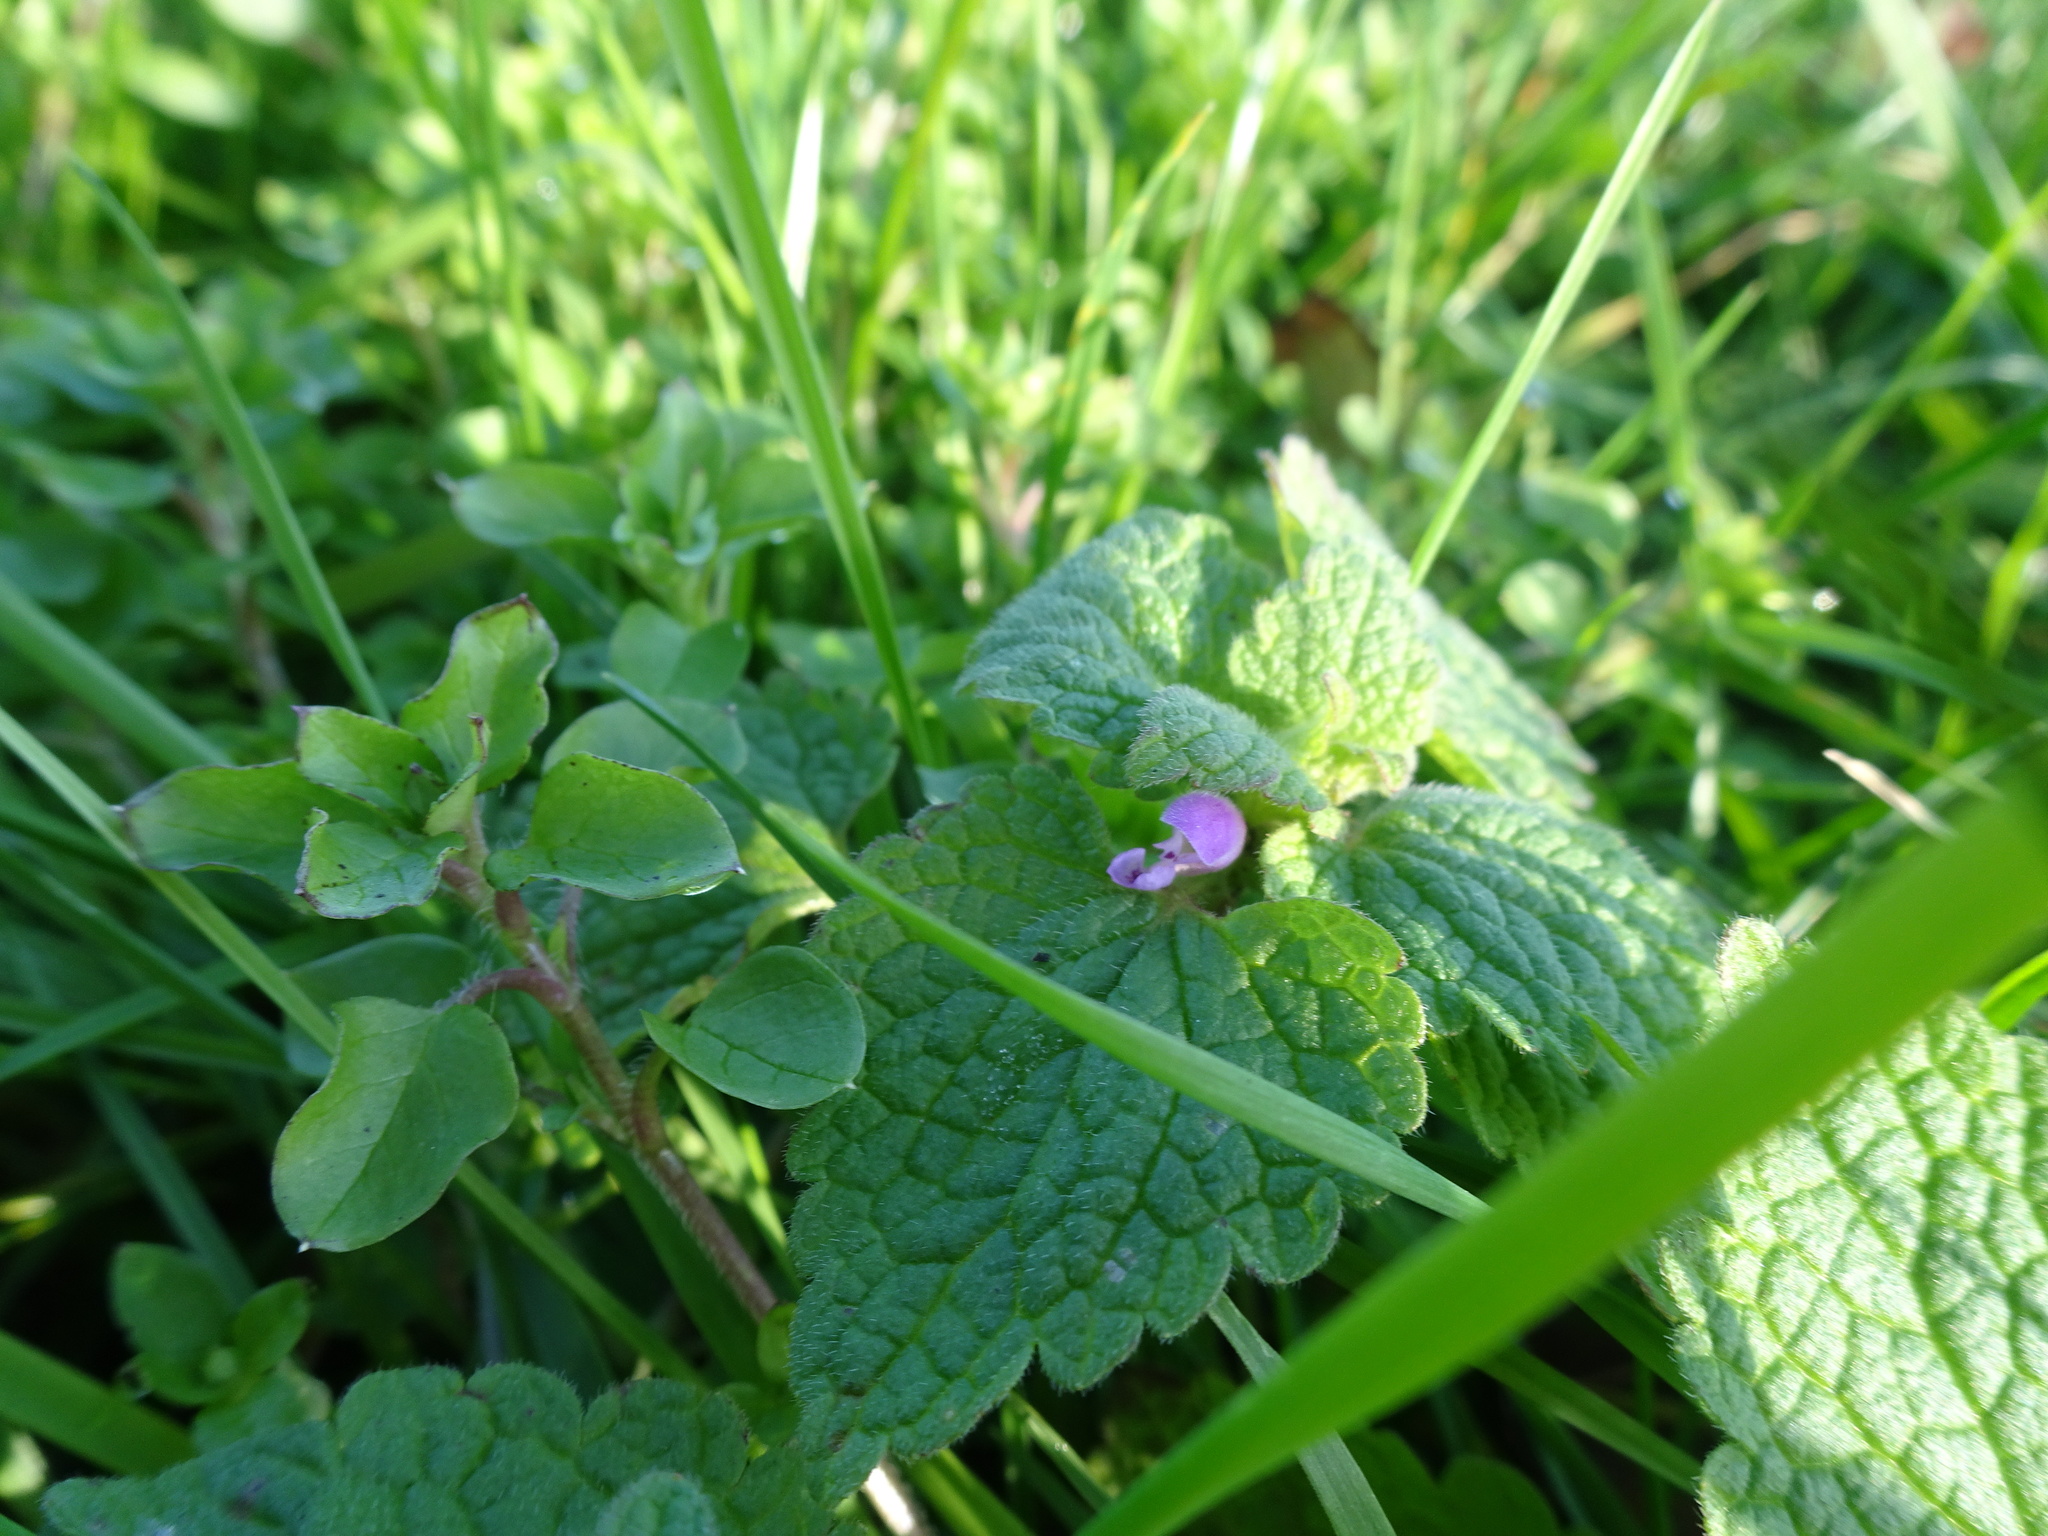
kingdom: Plantae
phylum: Tracheophyta
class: Magnoliopsida
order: Lamiales
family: Lamiaceae
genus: Lamium
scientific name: Lamium purpureum
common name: Red dead-nettle
